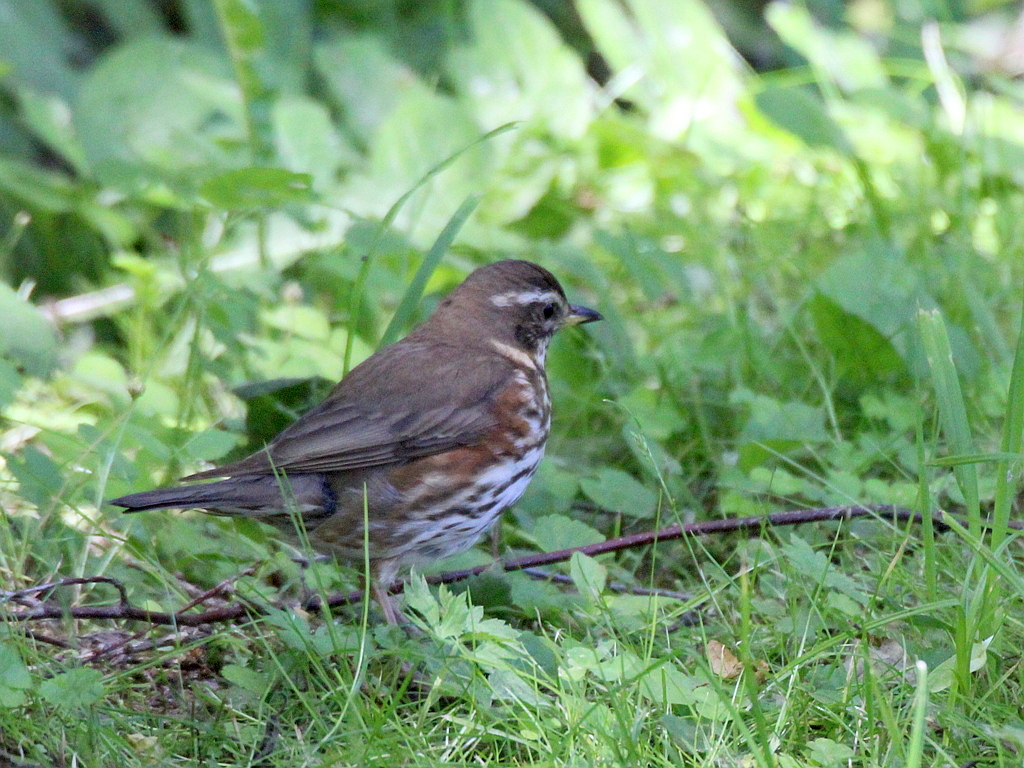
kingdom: Animalia
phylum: Chordata
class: Aves
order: Passeriformes
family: Turdidae
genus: Turdus
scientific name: Turdus iliacus
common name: Redwing
